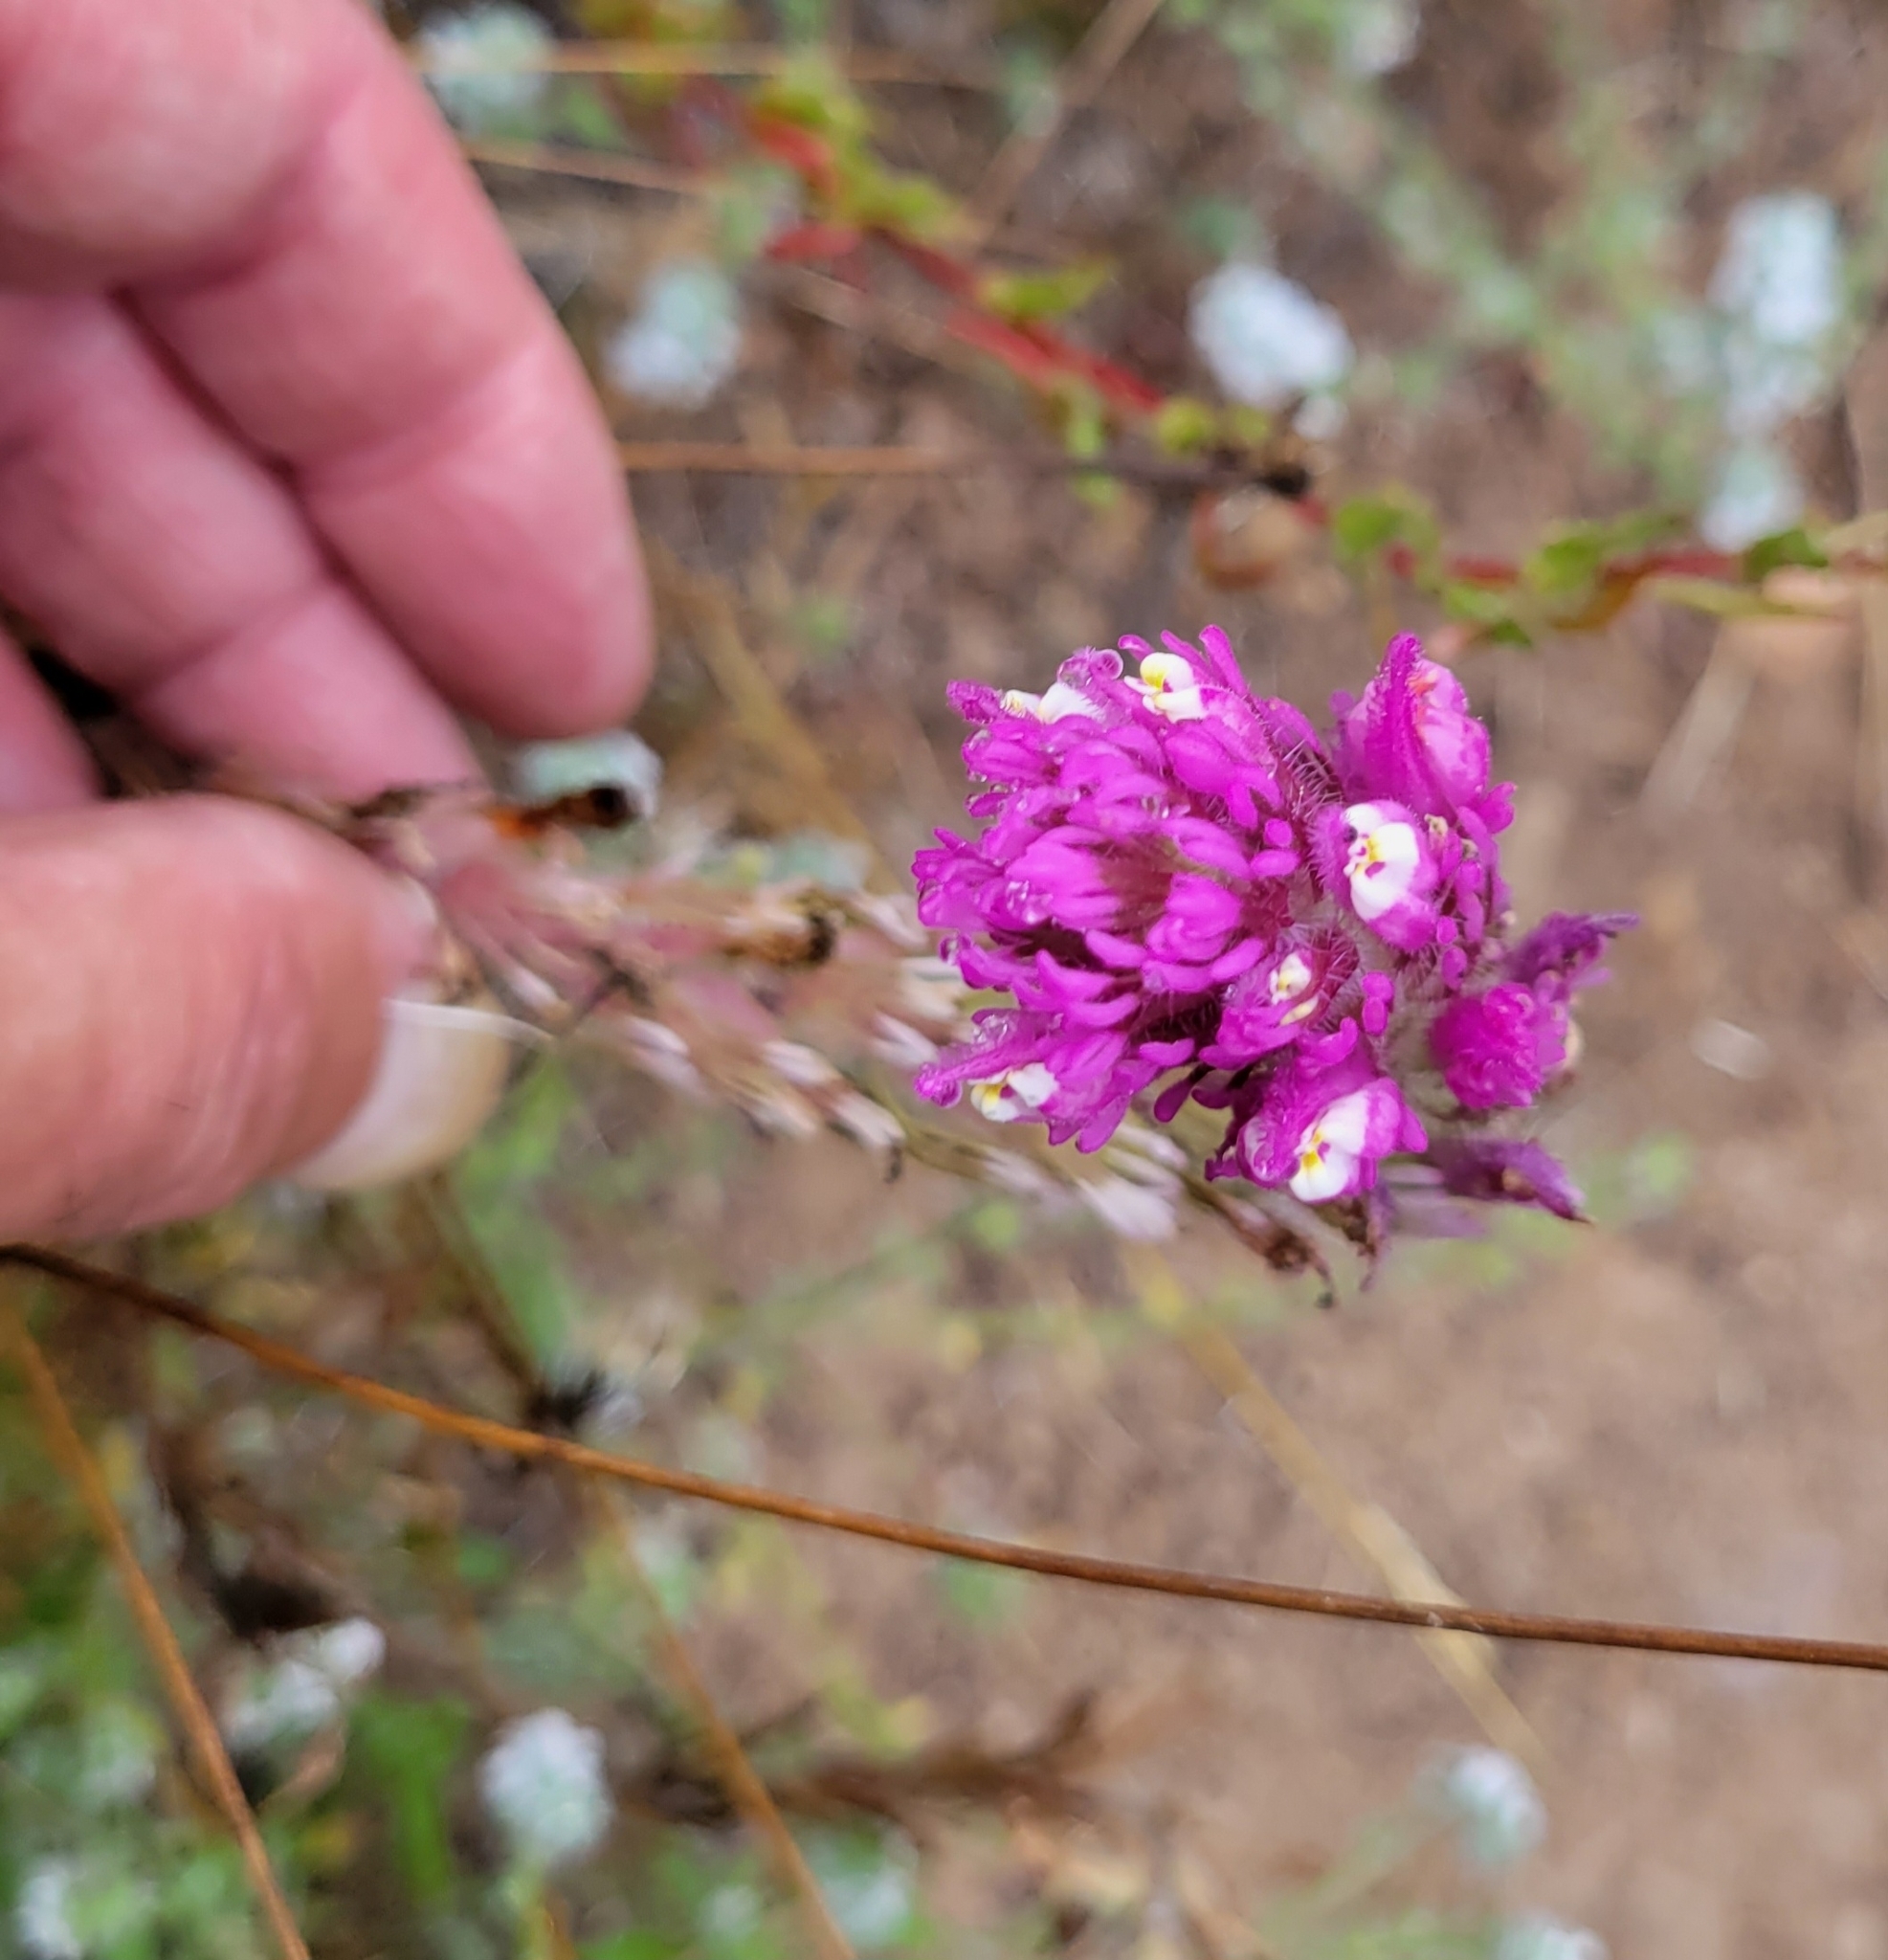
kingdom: Plantae
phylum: Tracheophyta
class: Magnoliopsida
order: Lamiales
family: Orobanchaceae
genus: Castilleja
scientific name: Castilleja exserta
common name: Purple owl-clover
